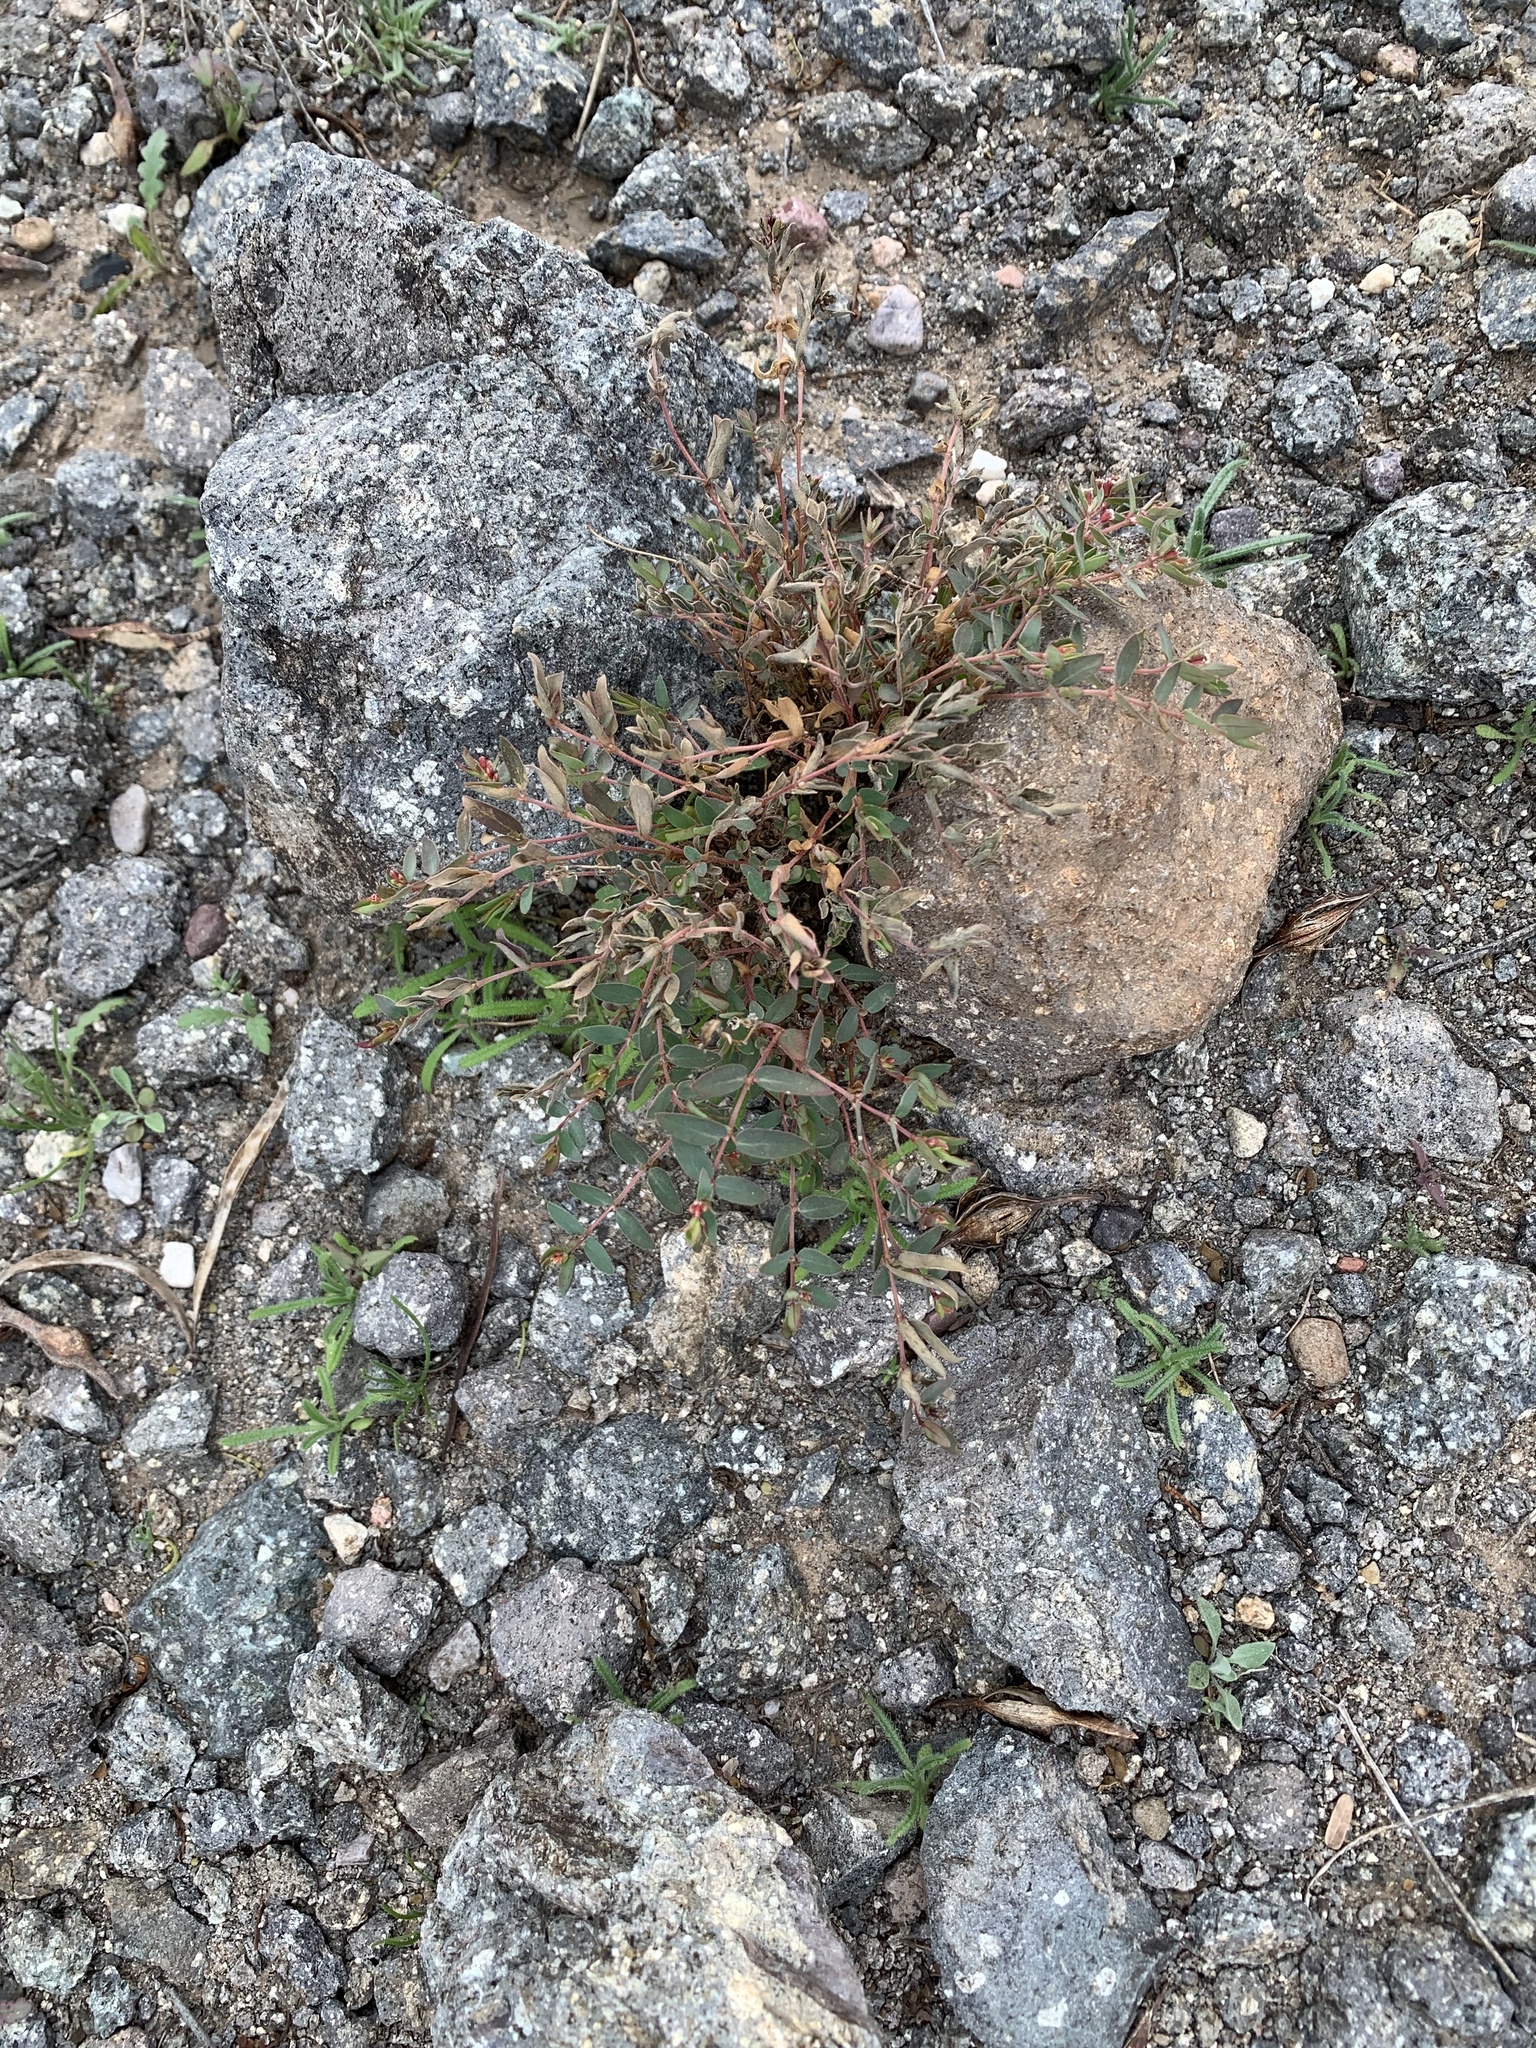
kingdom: Plantae
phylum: Tracheophyta
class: Magnoliopsida
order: Malpighiales
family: Euphorbiaceae
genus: Euphorbia
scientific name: Euphorbia capitellata
